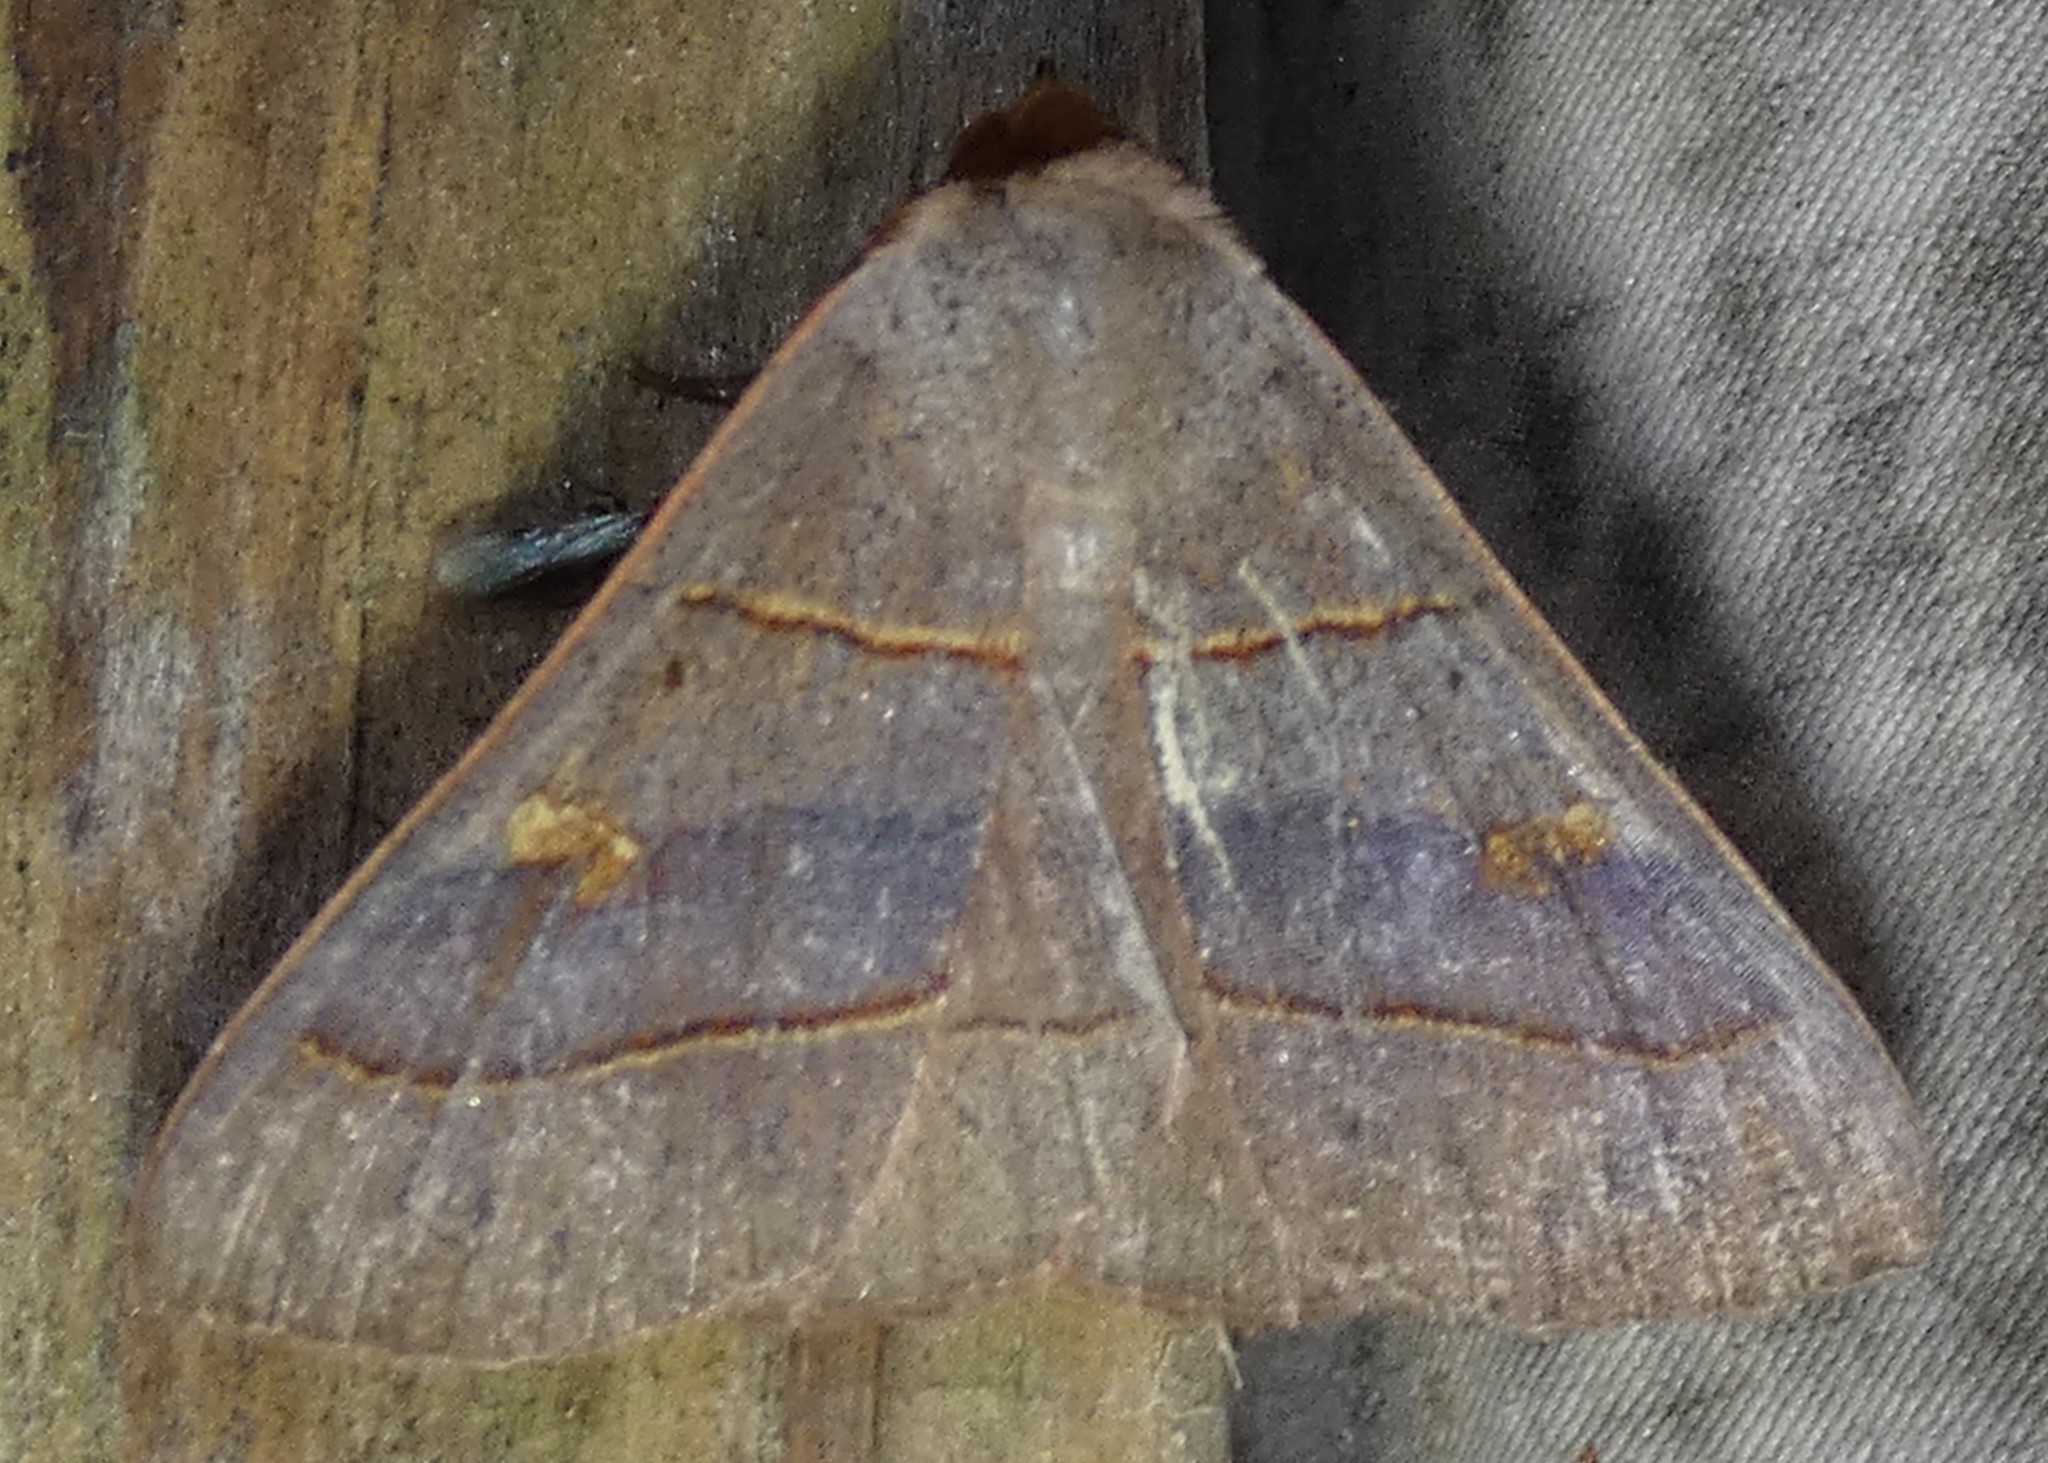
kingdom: Animalia
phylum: Arthropoda
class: Insecta
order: Lepidoptera
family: Erebidae
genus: Panopoda
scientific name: Panopoda rufimargo
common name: Red-lined panopoda moth
